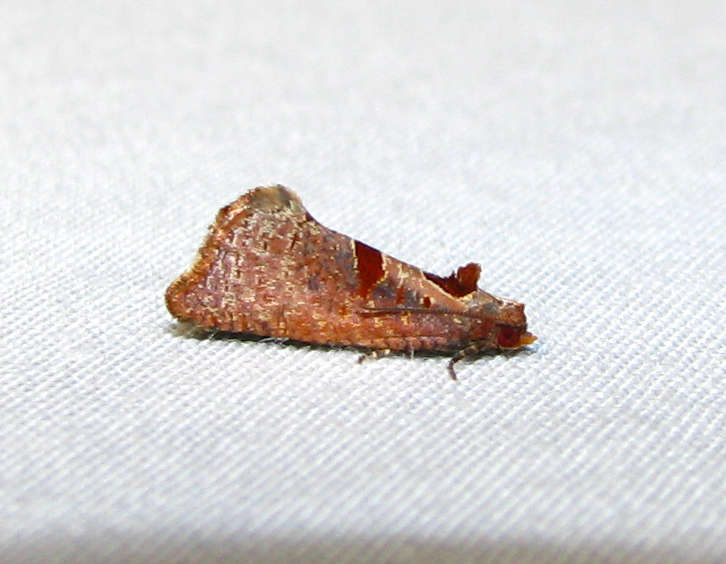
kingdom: Animalia
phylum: Arthropoda
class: Insecta
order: Lepidoptera
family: Tortricidae
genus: Glyphidoptera
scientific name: Glyphidoptera insignana
